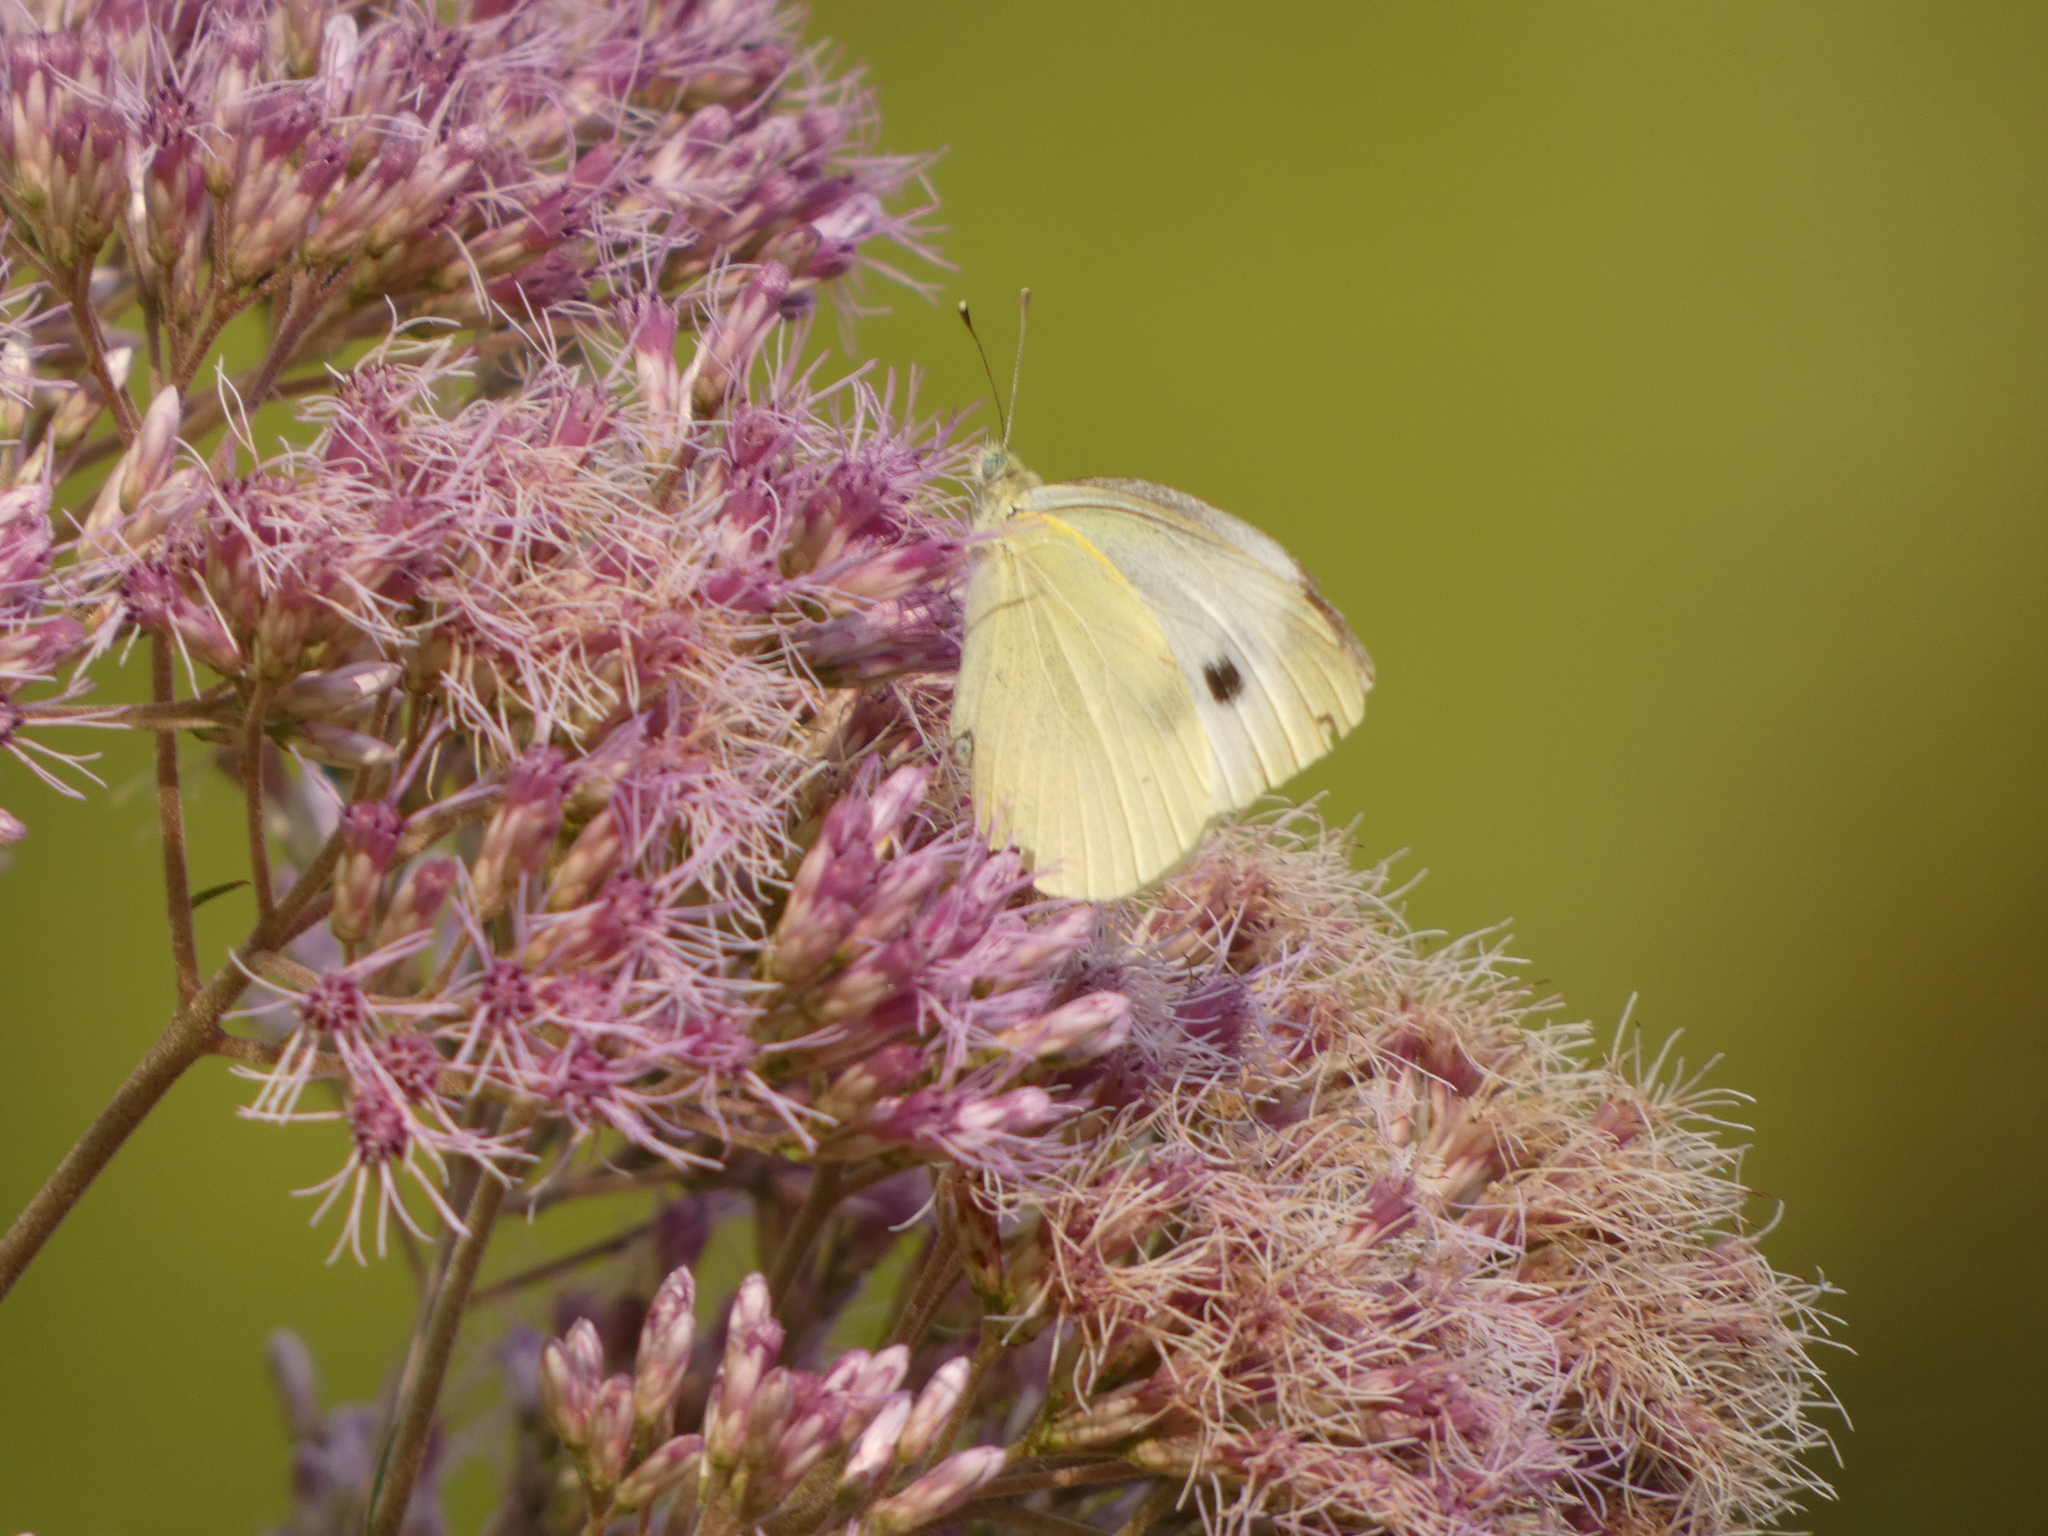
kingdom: Animalia
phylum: Arthropoda
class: Insecta
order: Lepidoptera
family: Pieridae
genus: Pieris
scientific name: Pieris rapae
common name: Small white
